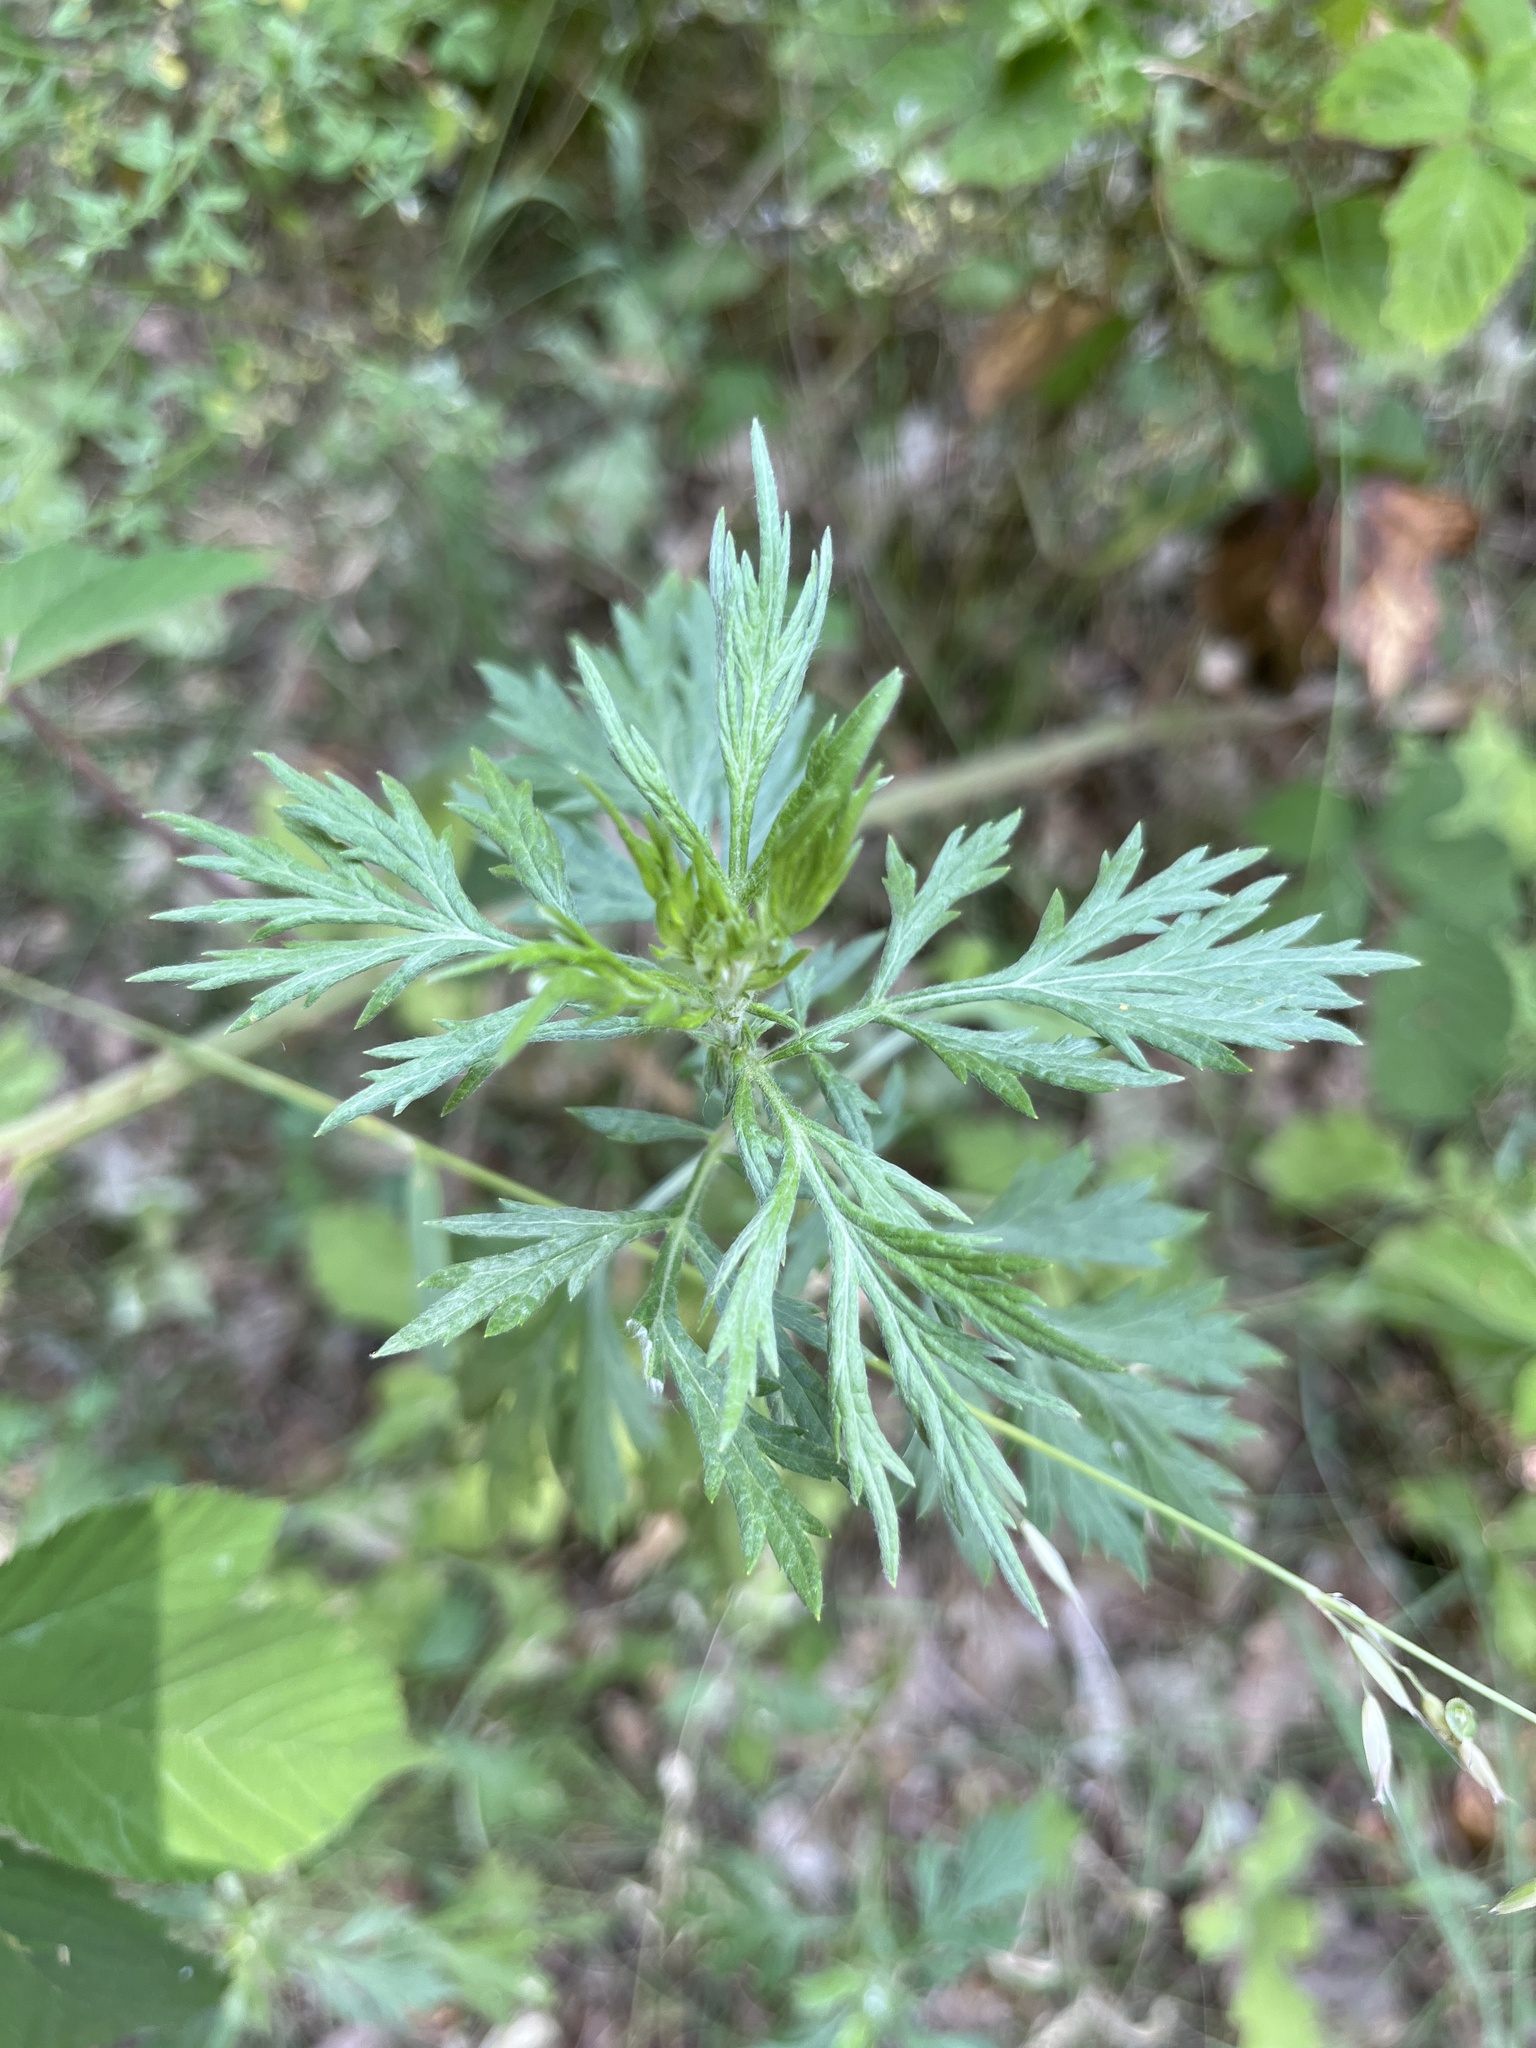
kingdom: Plantae
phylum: Tracheophyta
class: Magnoliopsida
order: Asterales
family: Asteraceae
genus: Artemisia
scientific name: Artemisia vulgaris
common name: Mugwort
